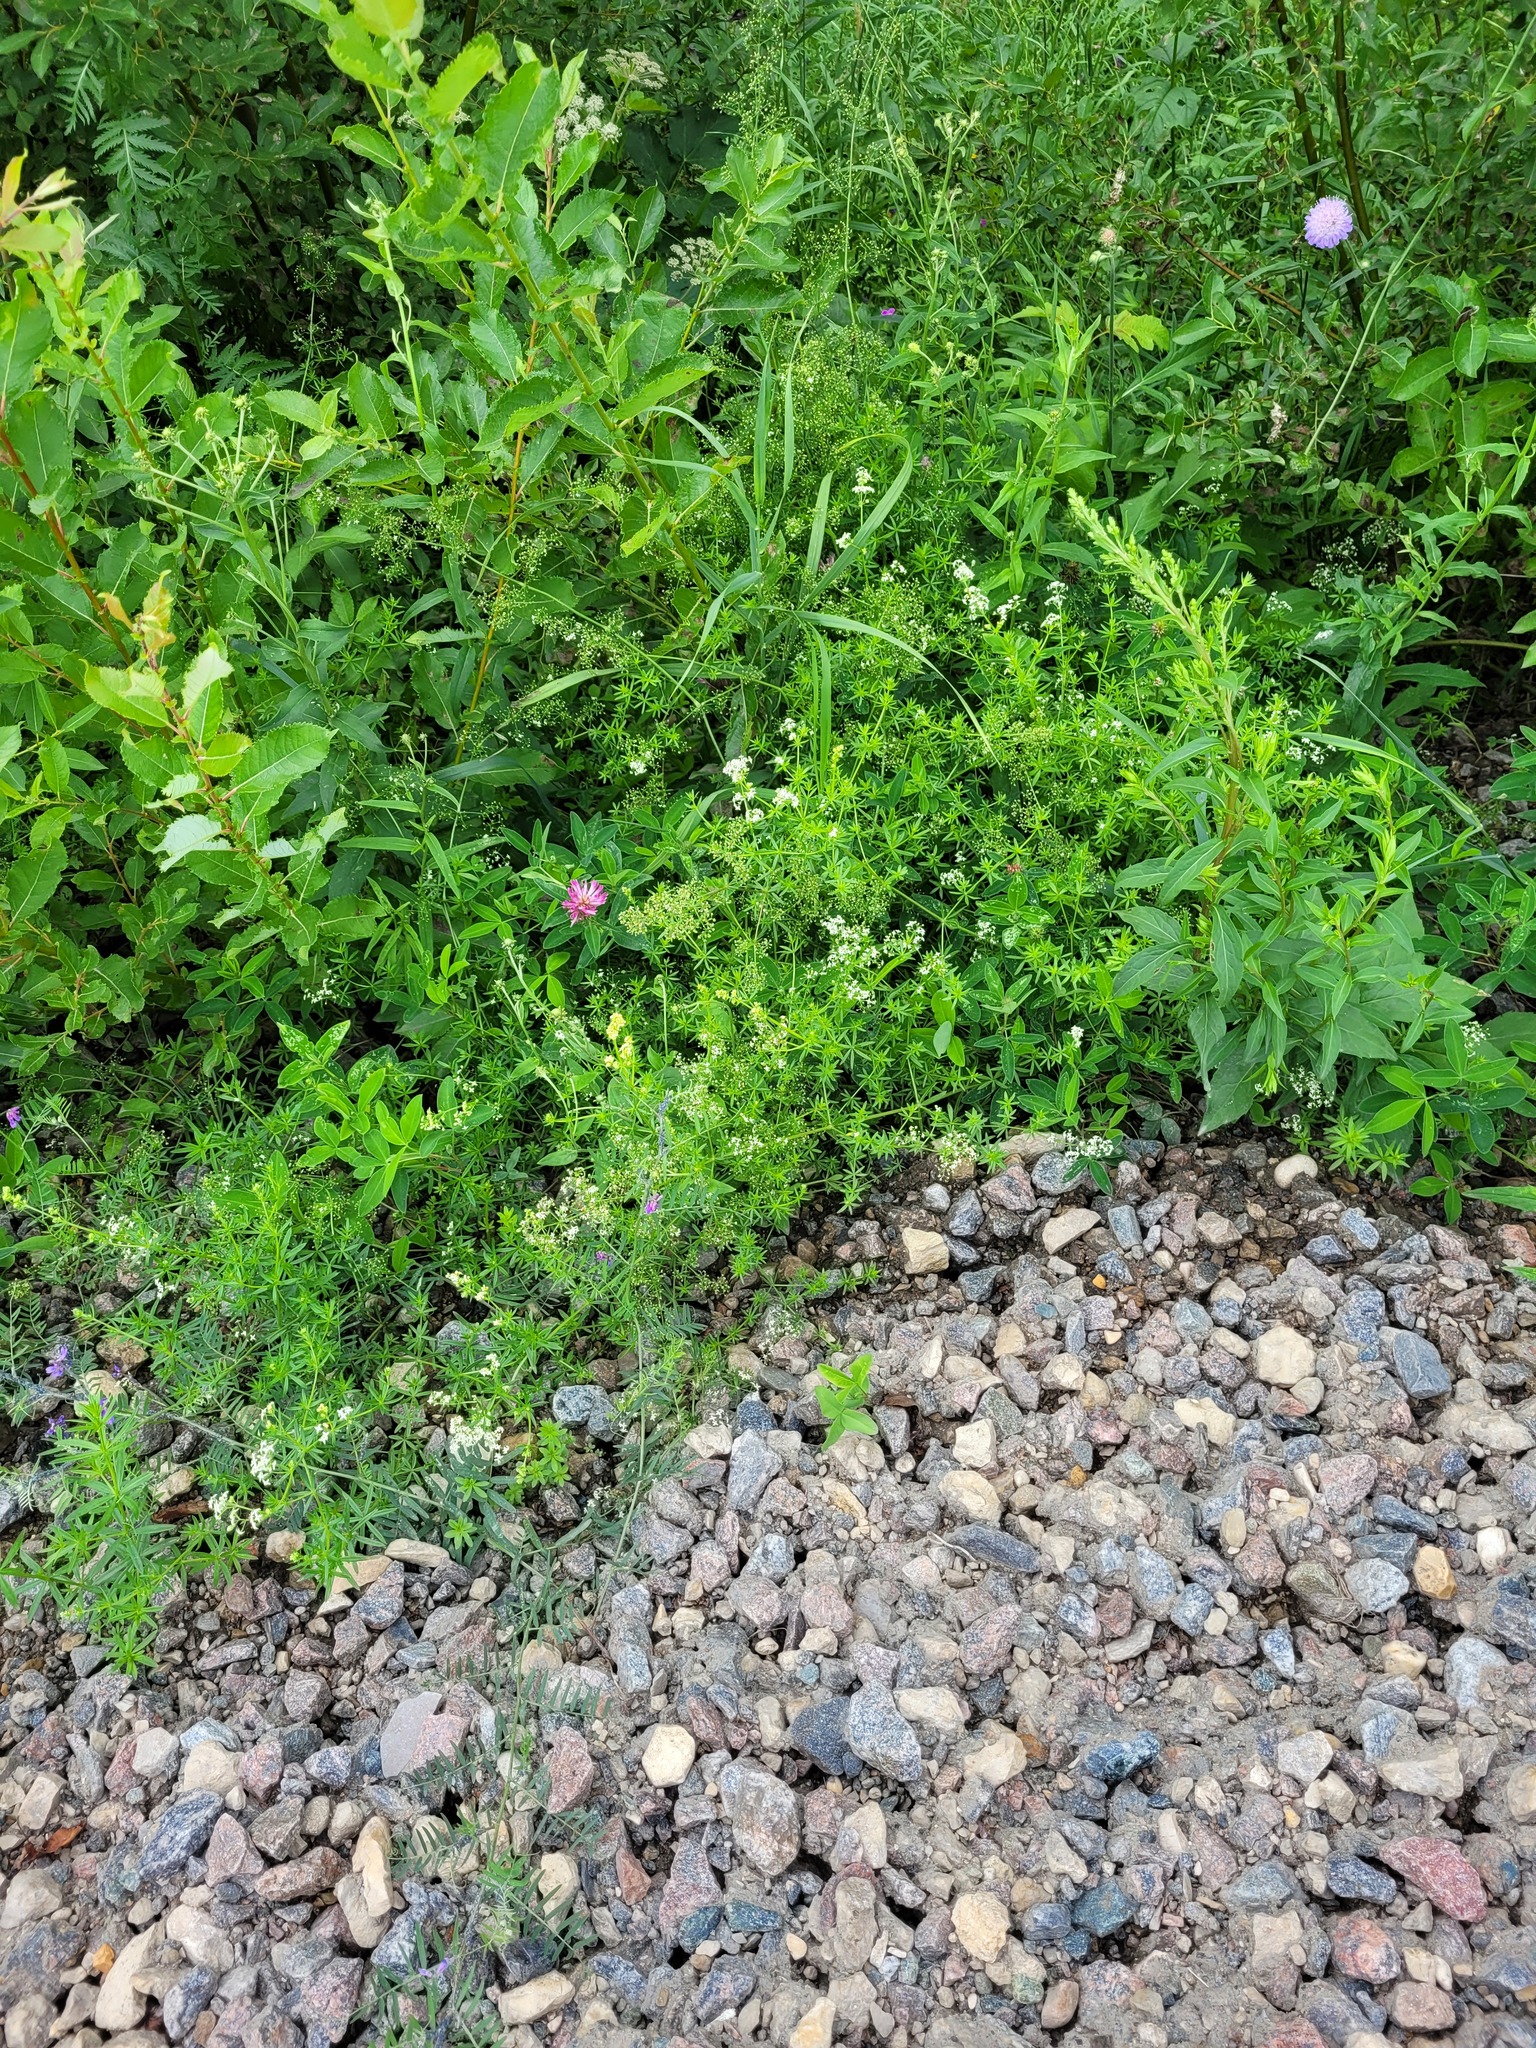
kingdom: Plantae
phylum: Tracheophyta
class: Magnoliopsida
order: Gentianales
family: Rubiaceae
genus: Galium
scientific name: Galium mollugo
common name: Hedge bedstraw
